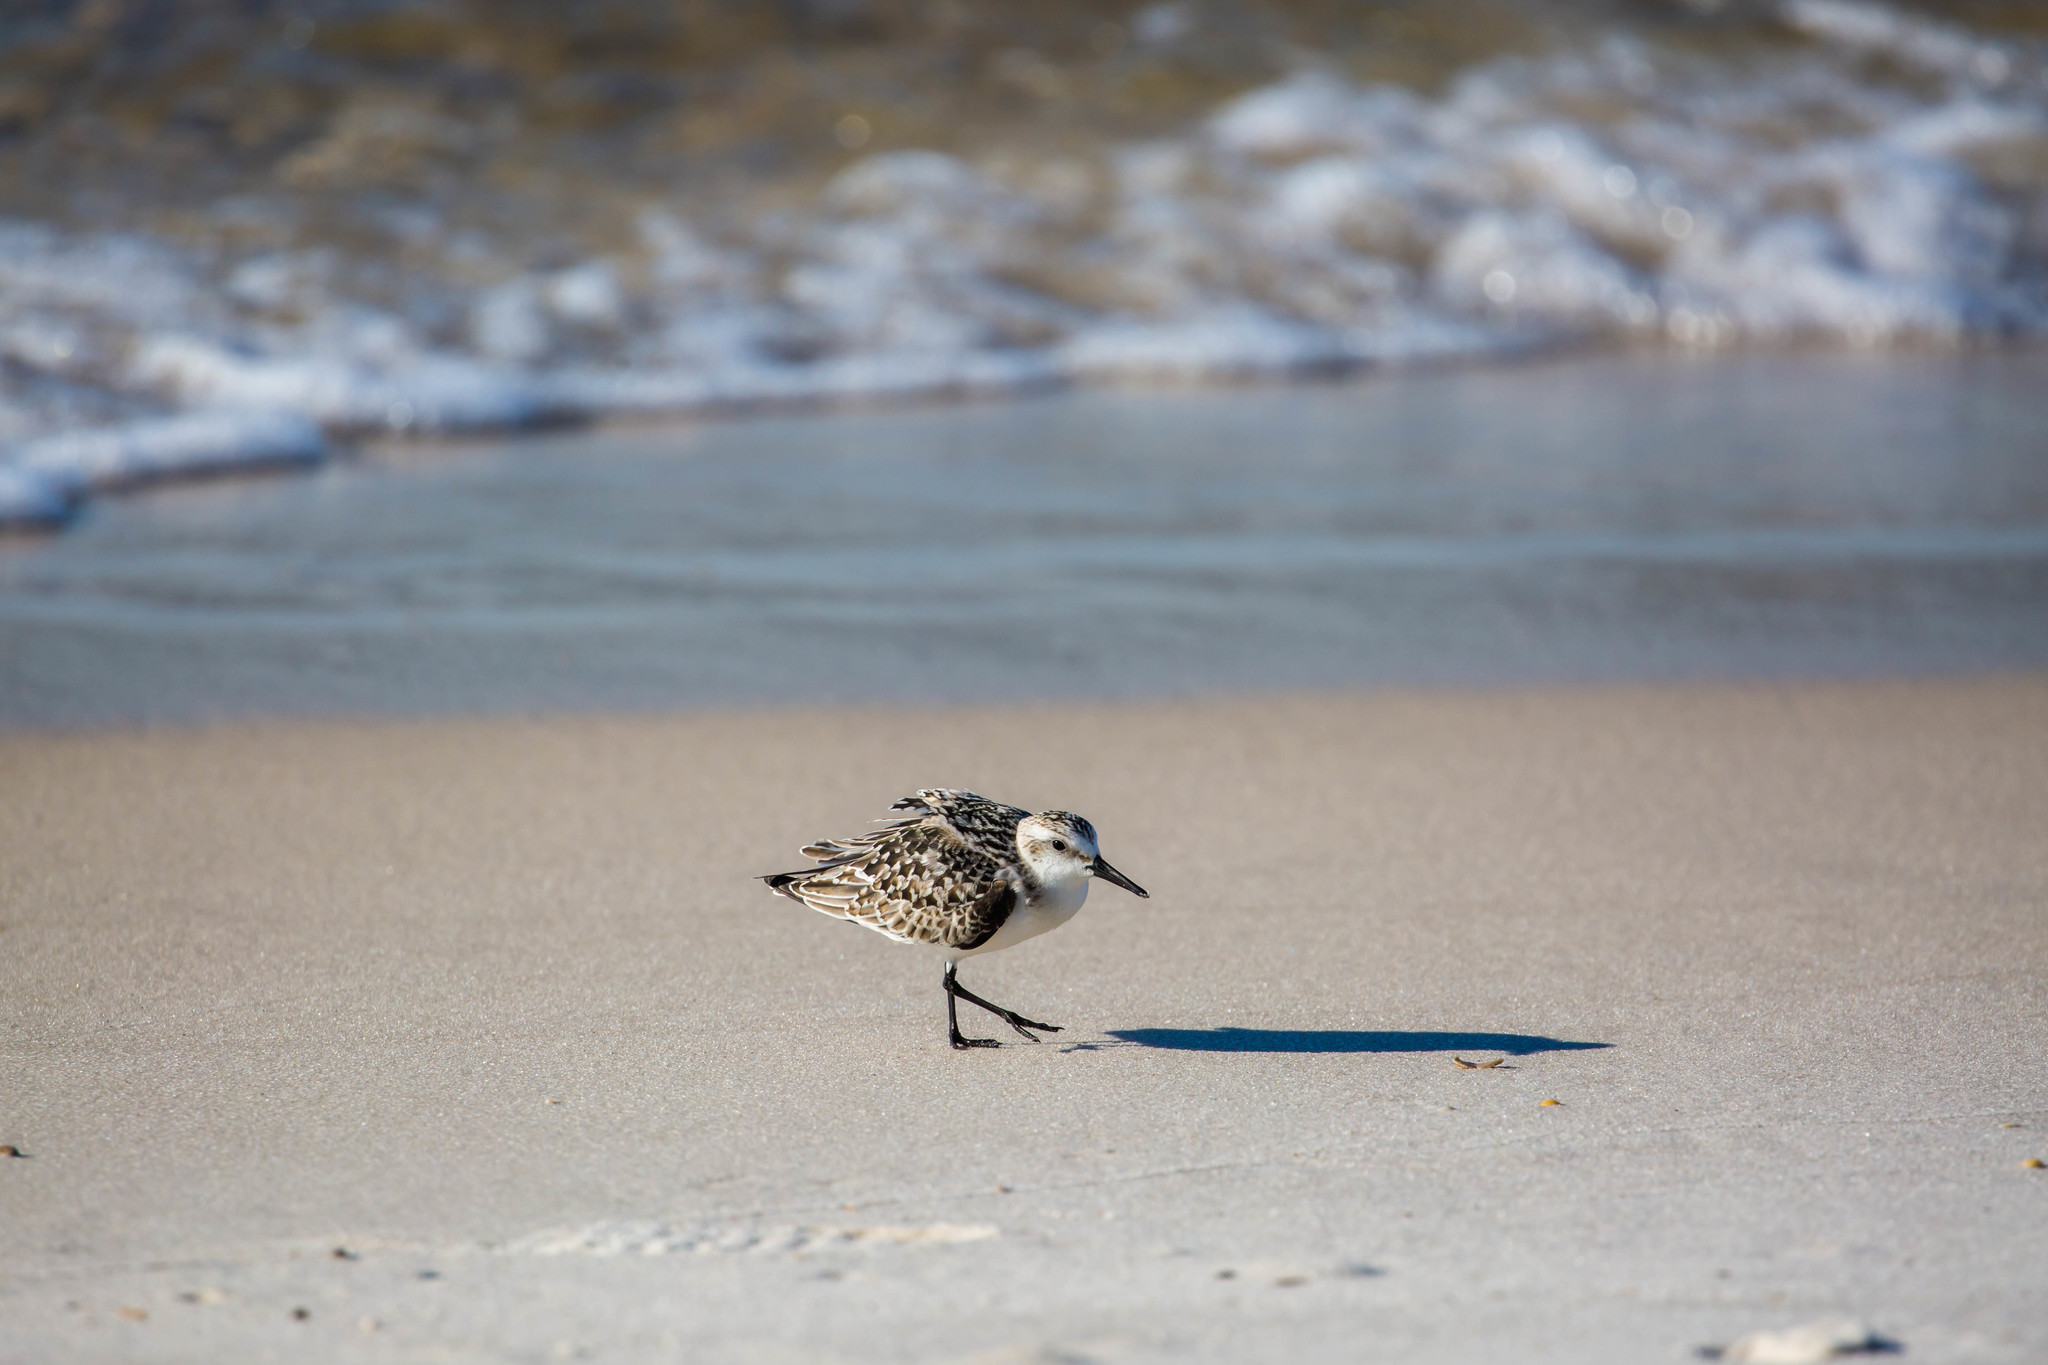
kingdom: Animalia
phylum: Chordata
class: Aves
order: Charadriiformes
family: Scolopacidae
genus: Calidris
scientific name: Calidris alba
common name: Sanderling
